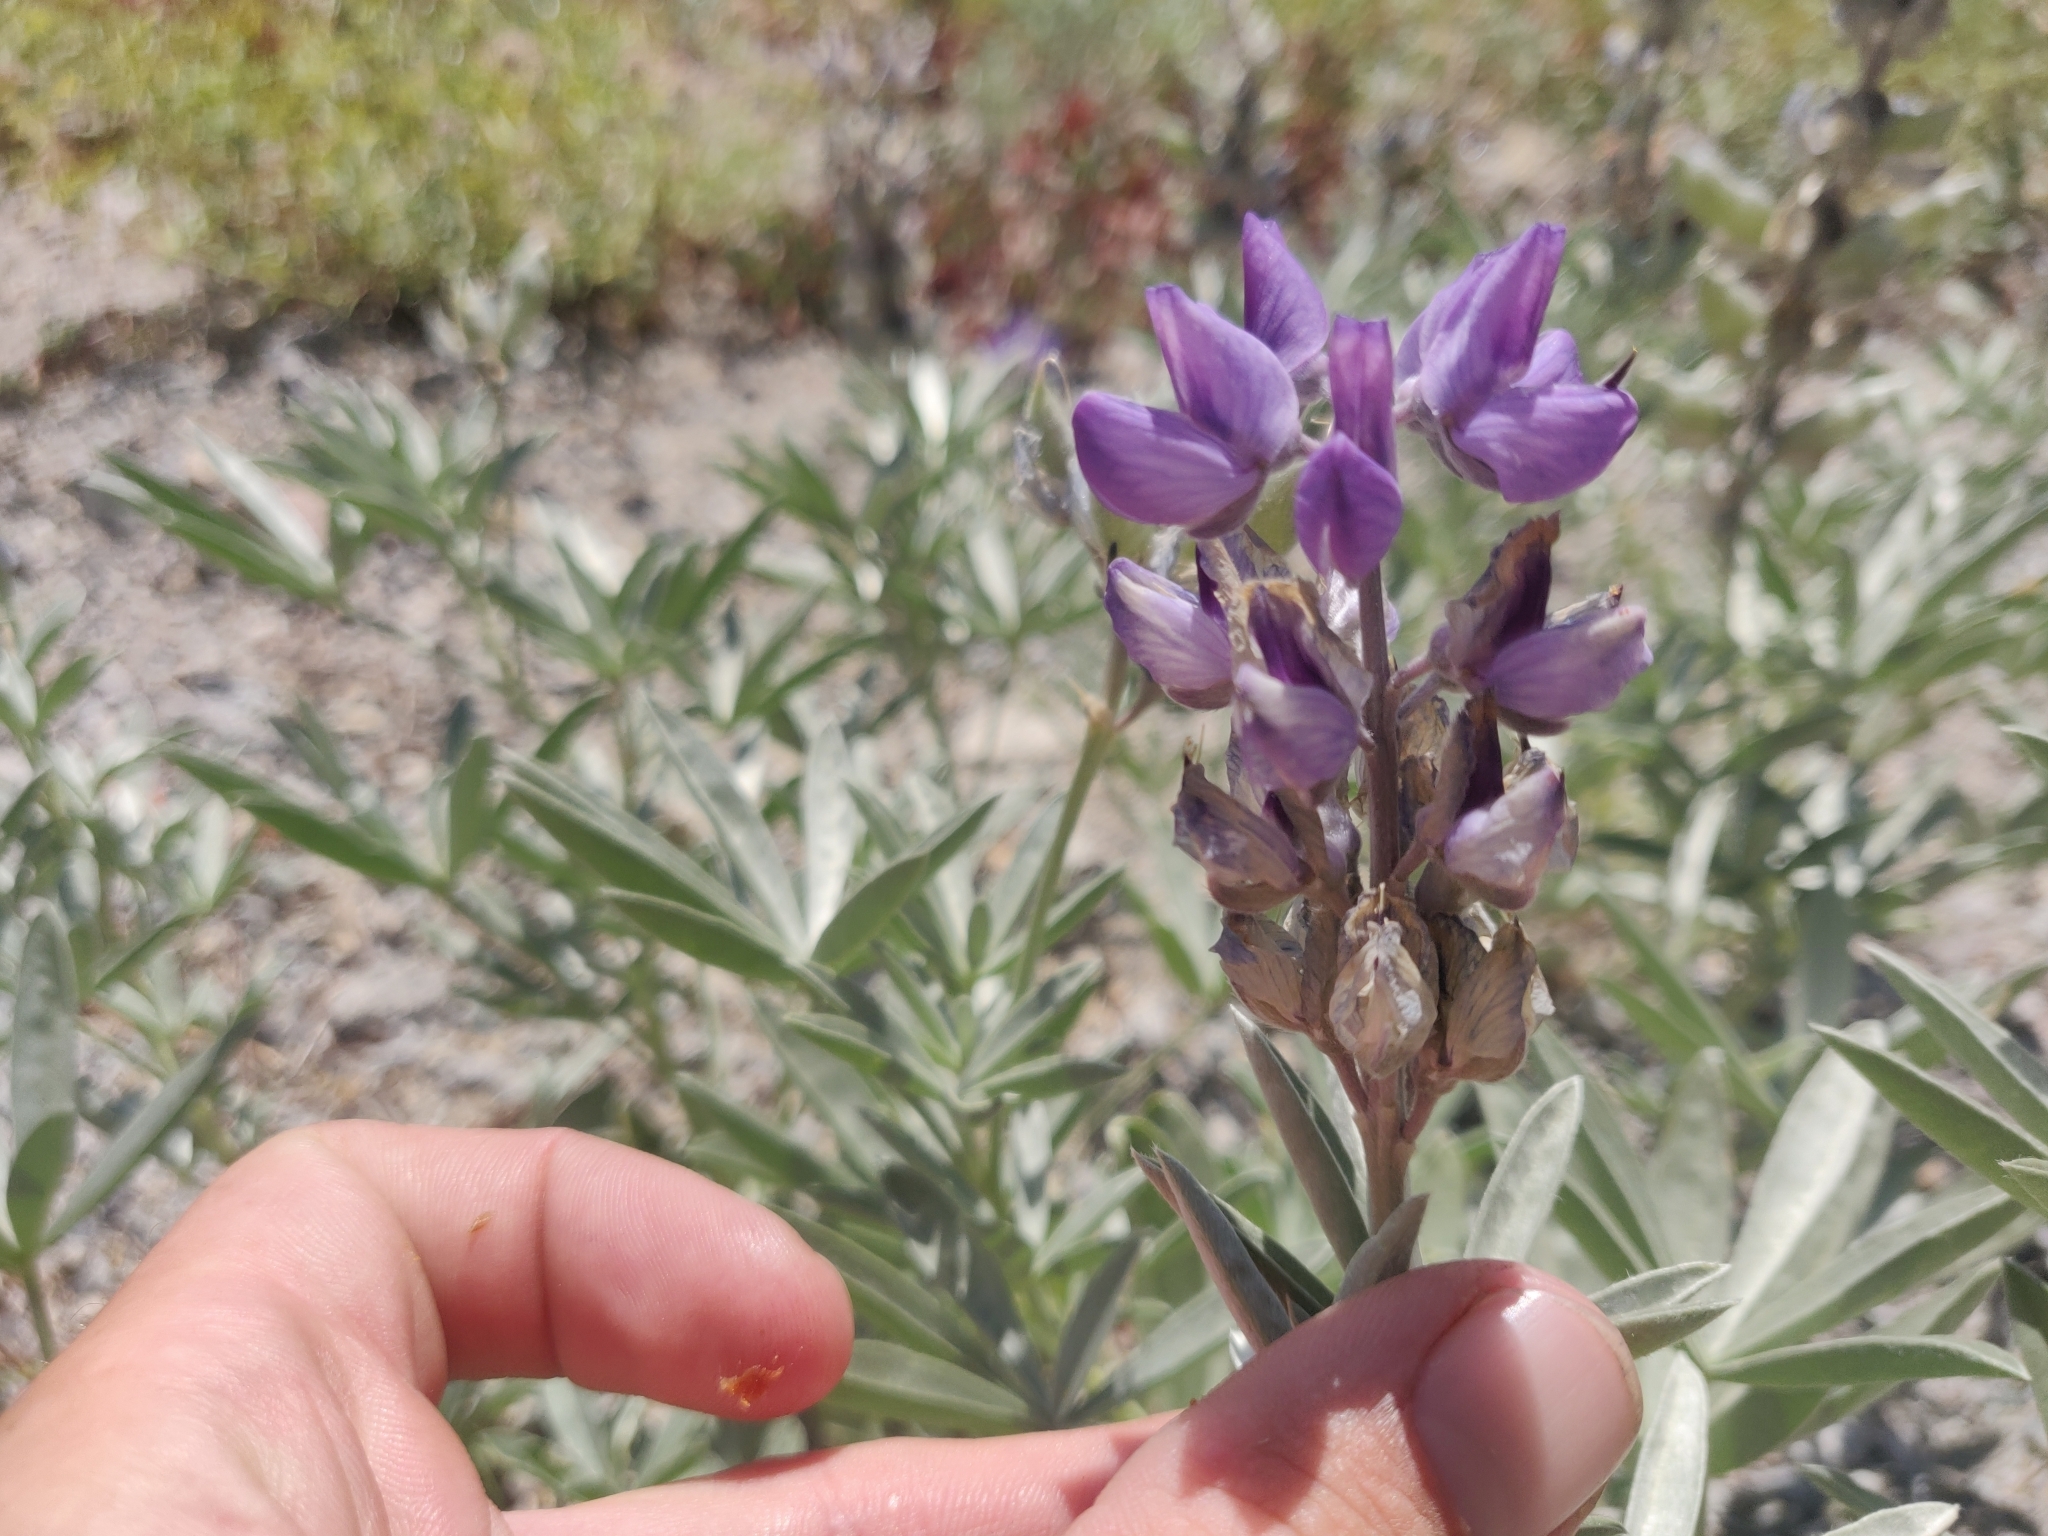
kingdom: Plantae
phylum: Tracheophyta
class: Magnoliopsida
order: Fabales
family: Fabaceae
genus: Lupinus
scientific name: Lupinus obtusilobus
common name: Blunt-lobe lupine
